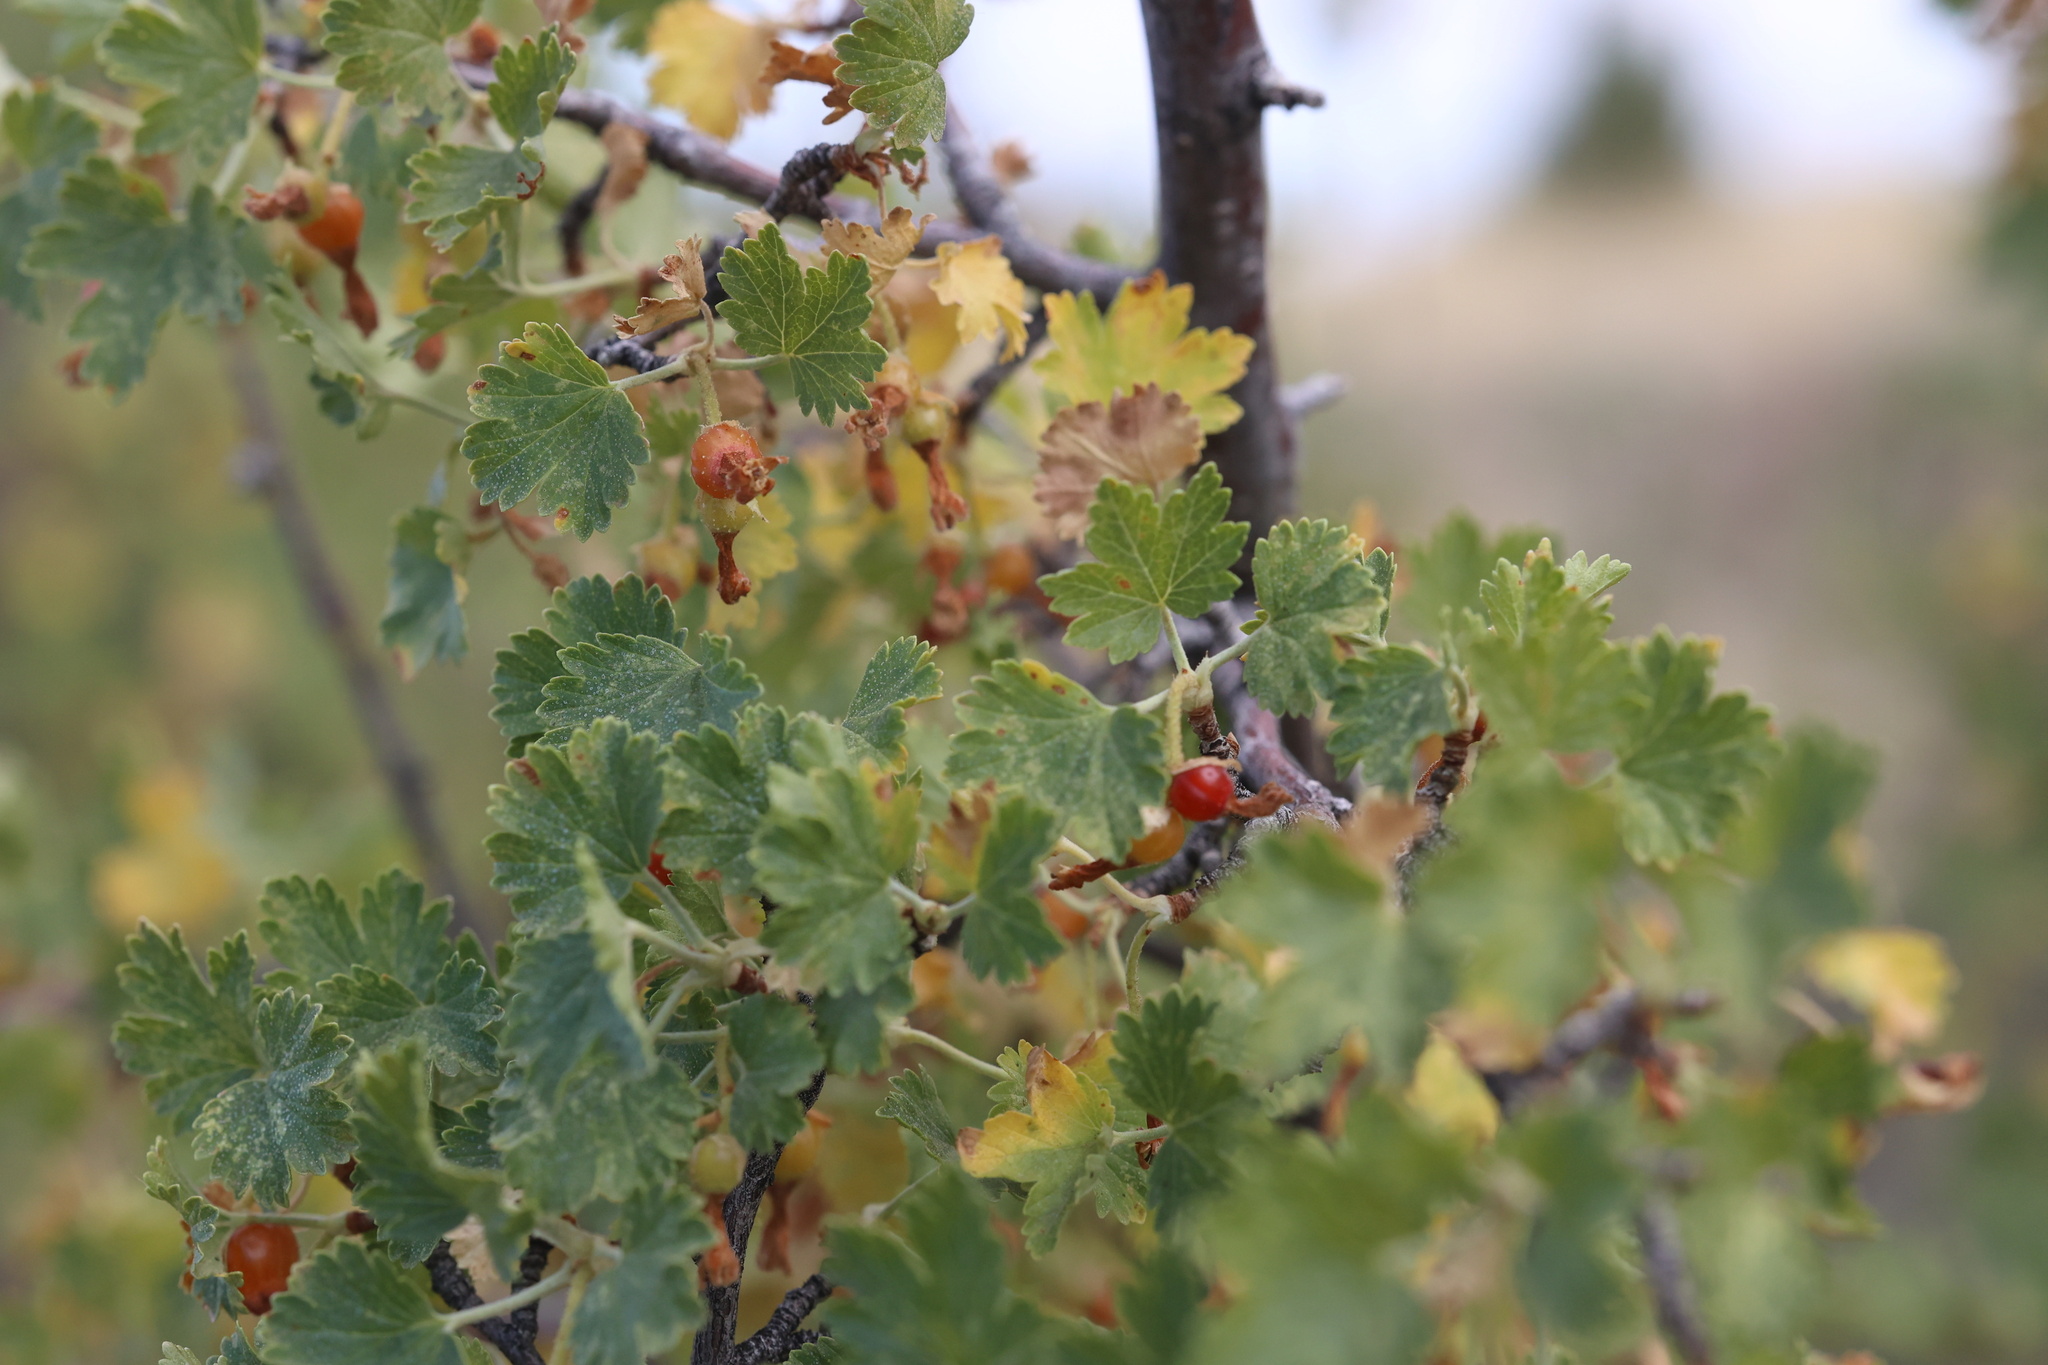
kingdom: Plantae
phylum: Tracheophyta
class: Magnoliopsida
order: Saxifragales
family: Grossulariaceae
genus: Ribes
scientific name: Ribes cereum
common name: Wax currant
